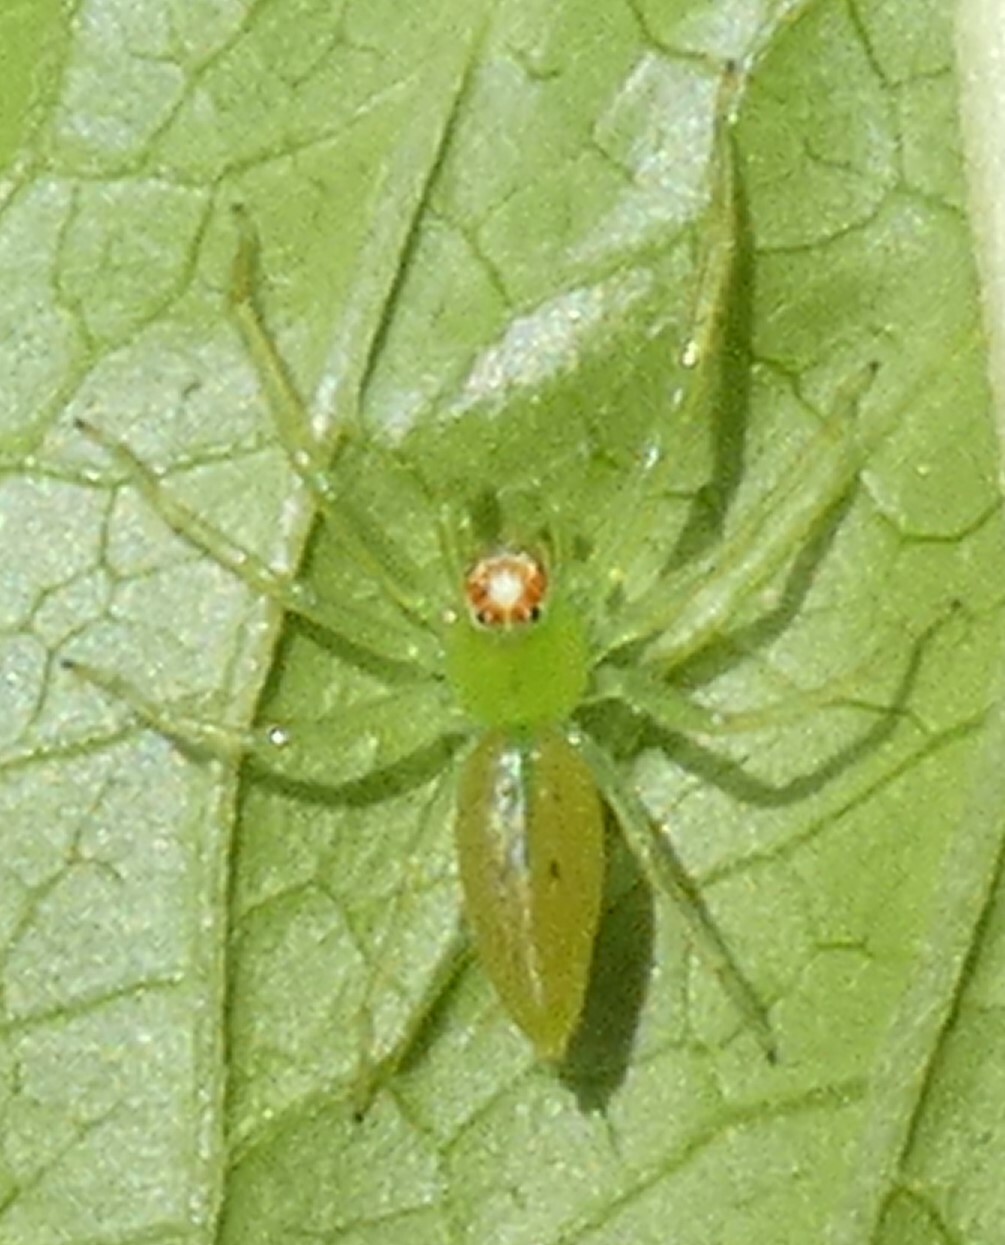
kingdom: Animalia
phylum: Arthropoda
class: Arachnida
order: Araneae
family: Salticidae
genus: Lyssomanes
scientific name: Lyssomanes viridis
